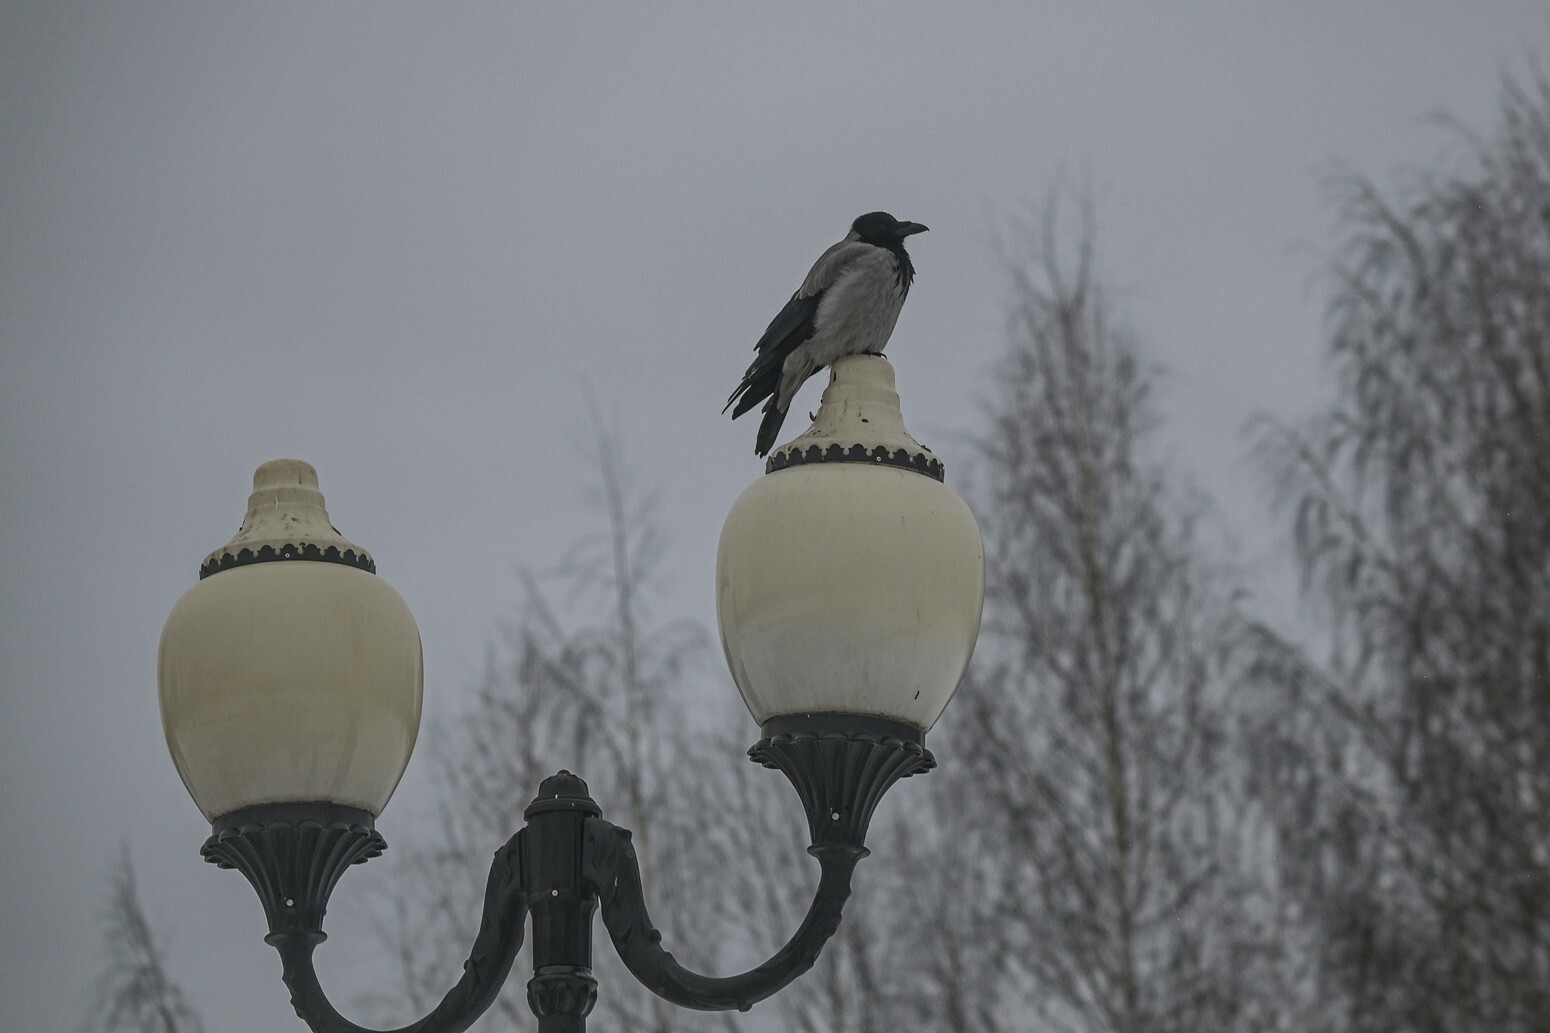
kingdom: Animalia
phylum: Chordata
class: Aves
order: Passeriformes
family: Corvidae
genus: Corvus
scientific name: Corvus cornix
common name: Hooded crow
